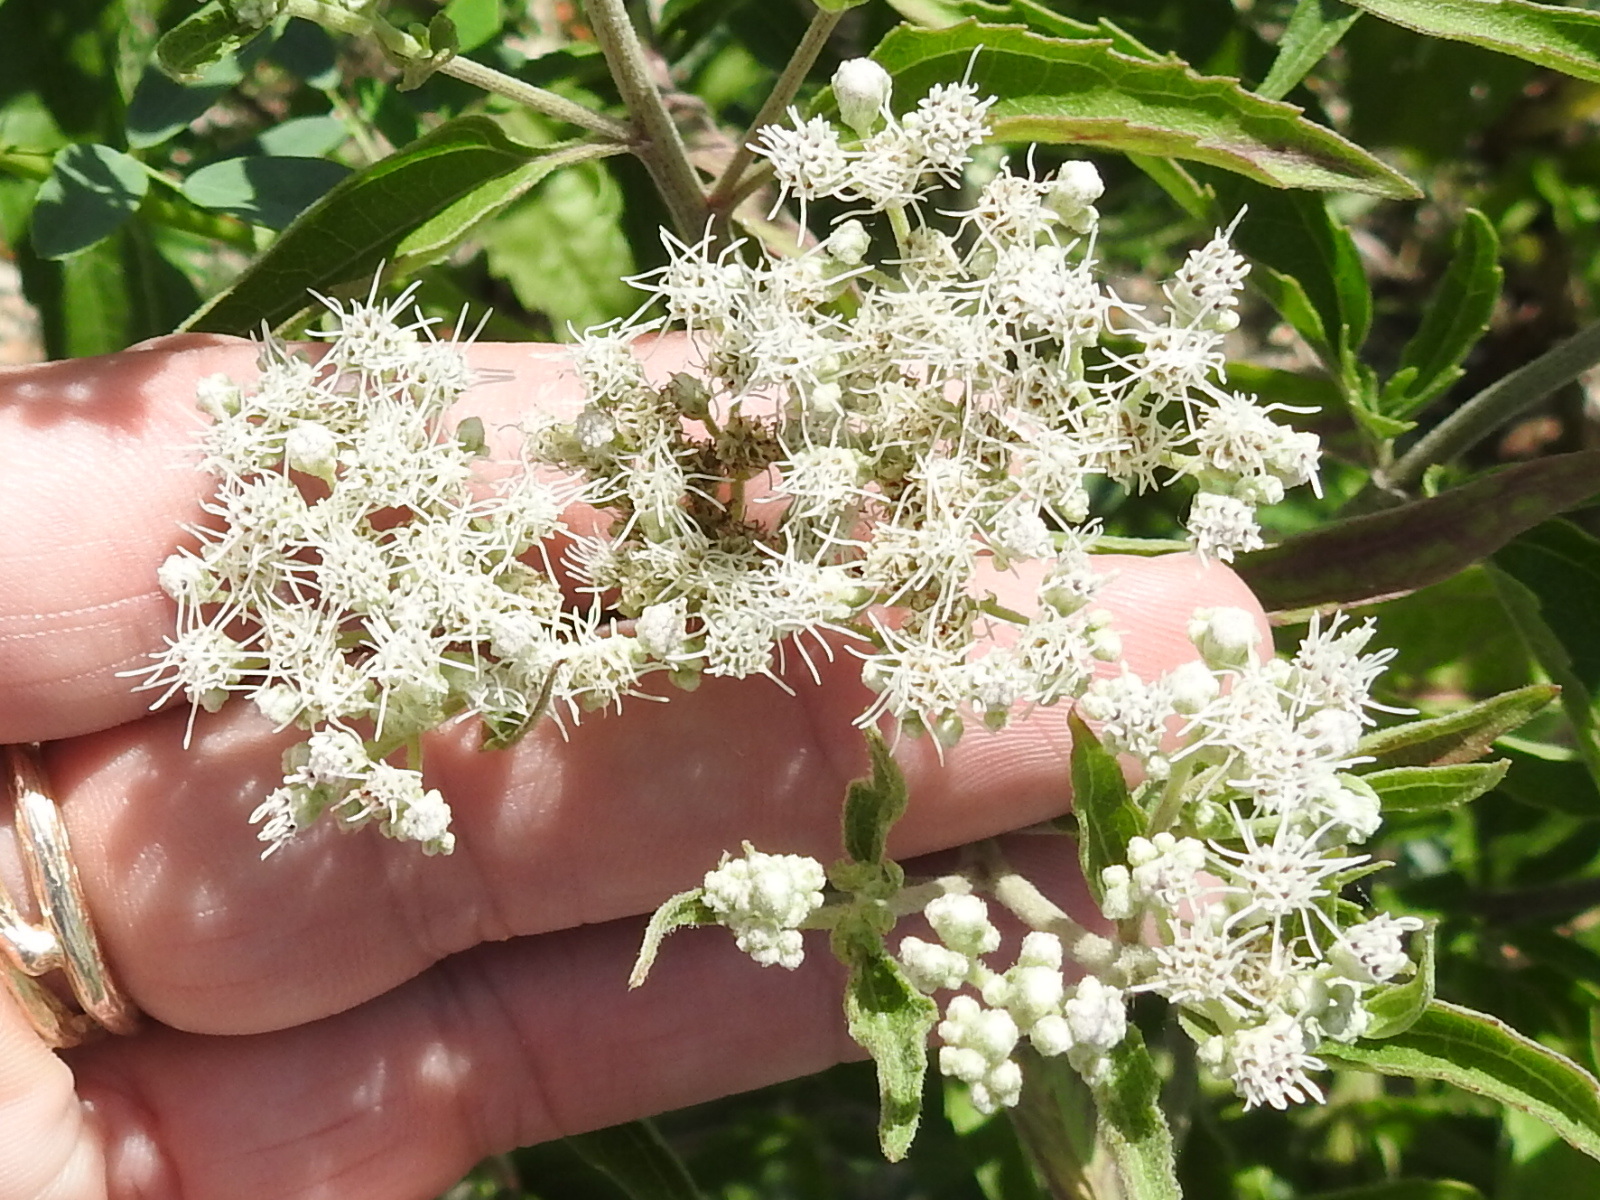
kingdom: Plantae
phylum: Tracheophyta
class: Magnoliopsida
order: Asterales
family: Asteraceae
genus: Eupatorium
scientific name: Eupatorium serotinum
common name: Late boneset
